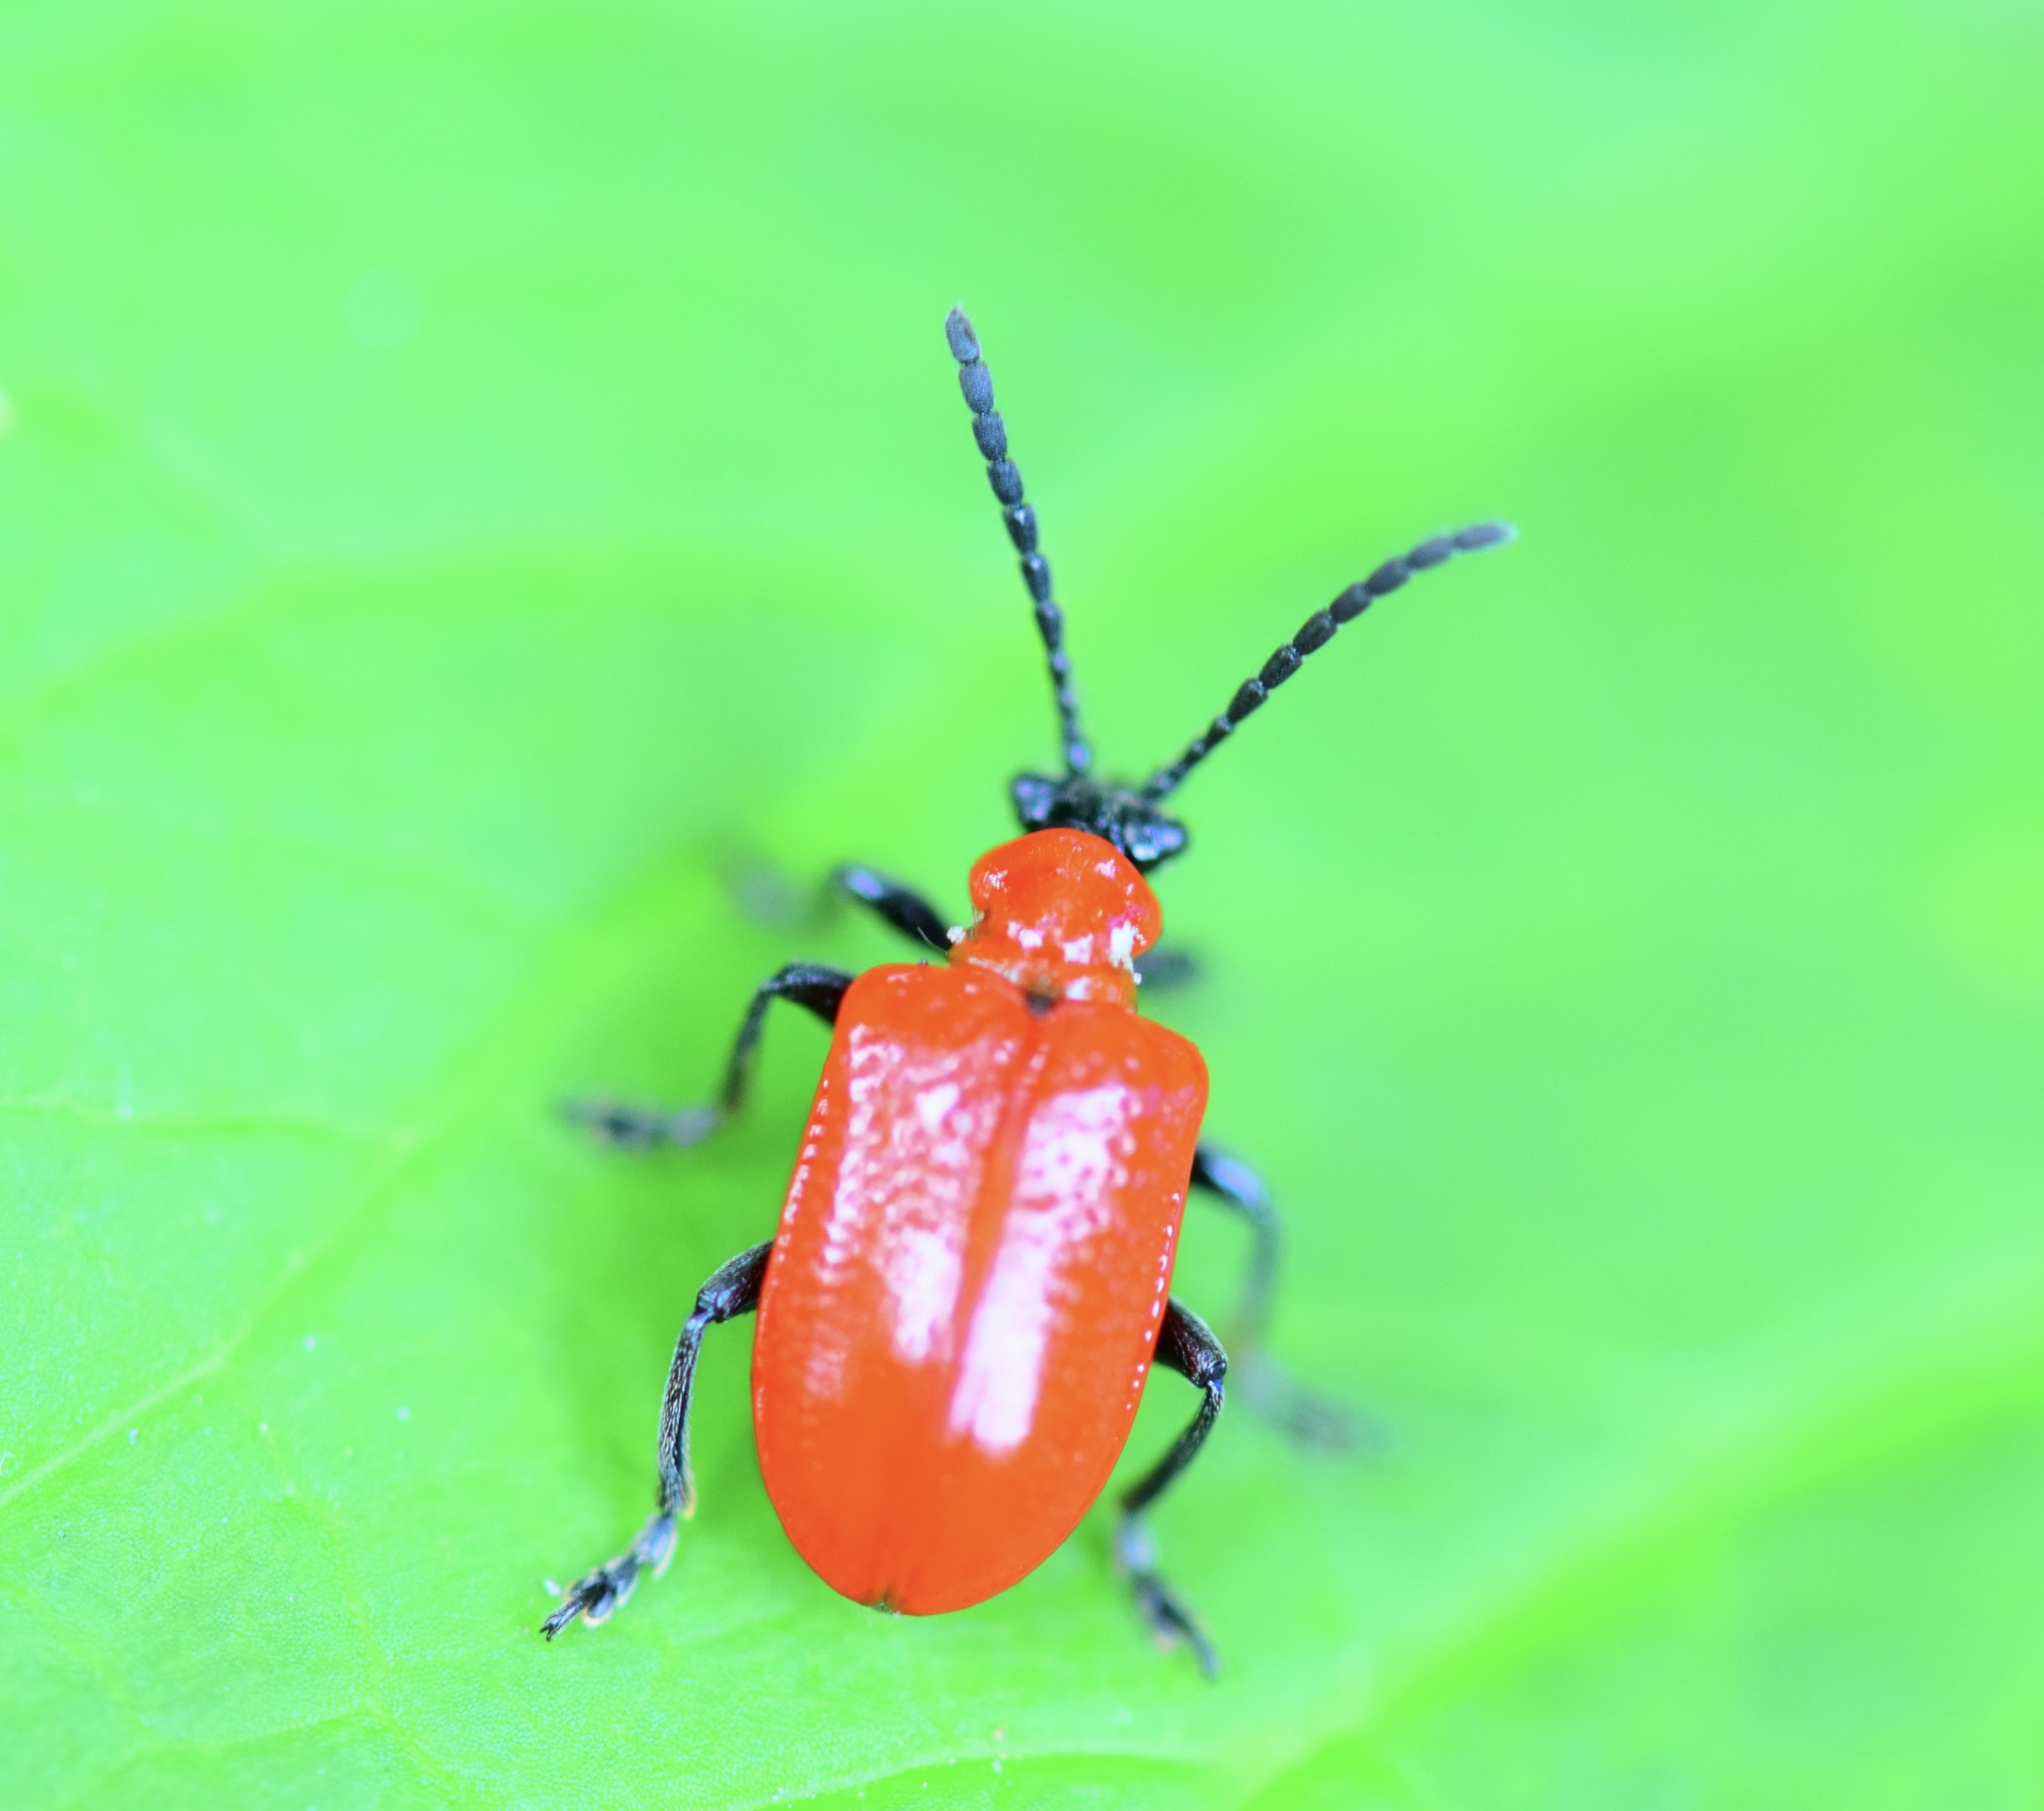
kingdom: Animalia
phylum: Arthropoda
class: Insecta
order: Coleoptera
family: Chrysomelidae
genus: Lilioceris
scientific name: Lilioceris lilii
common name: Lily beetle
